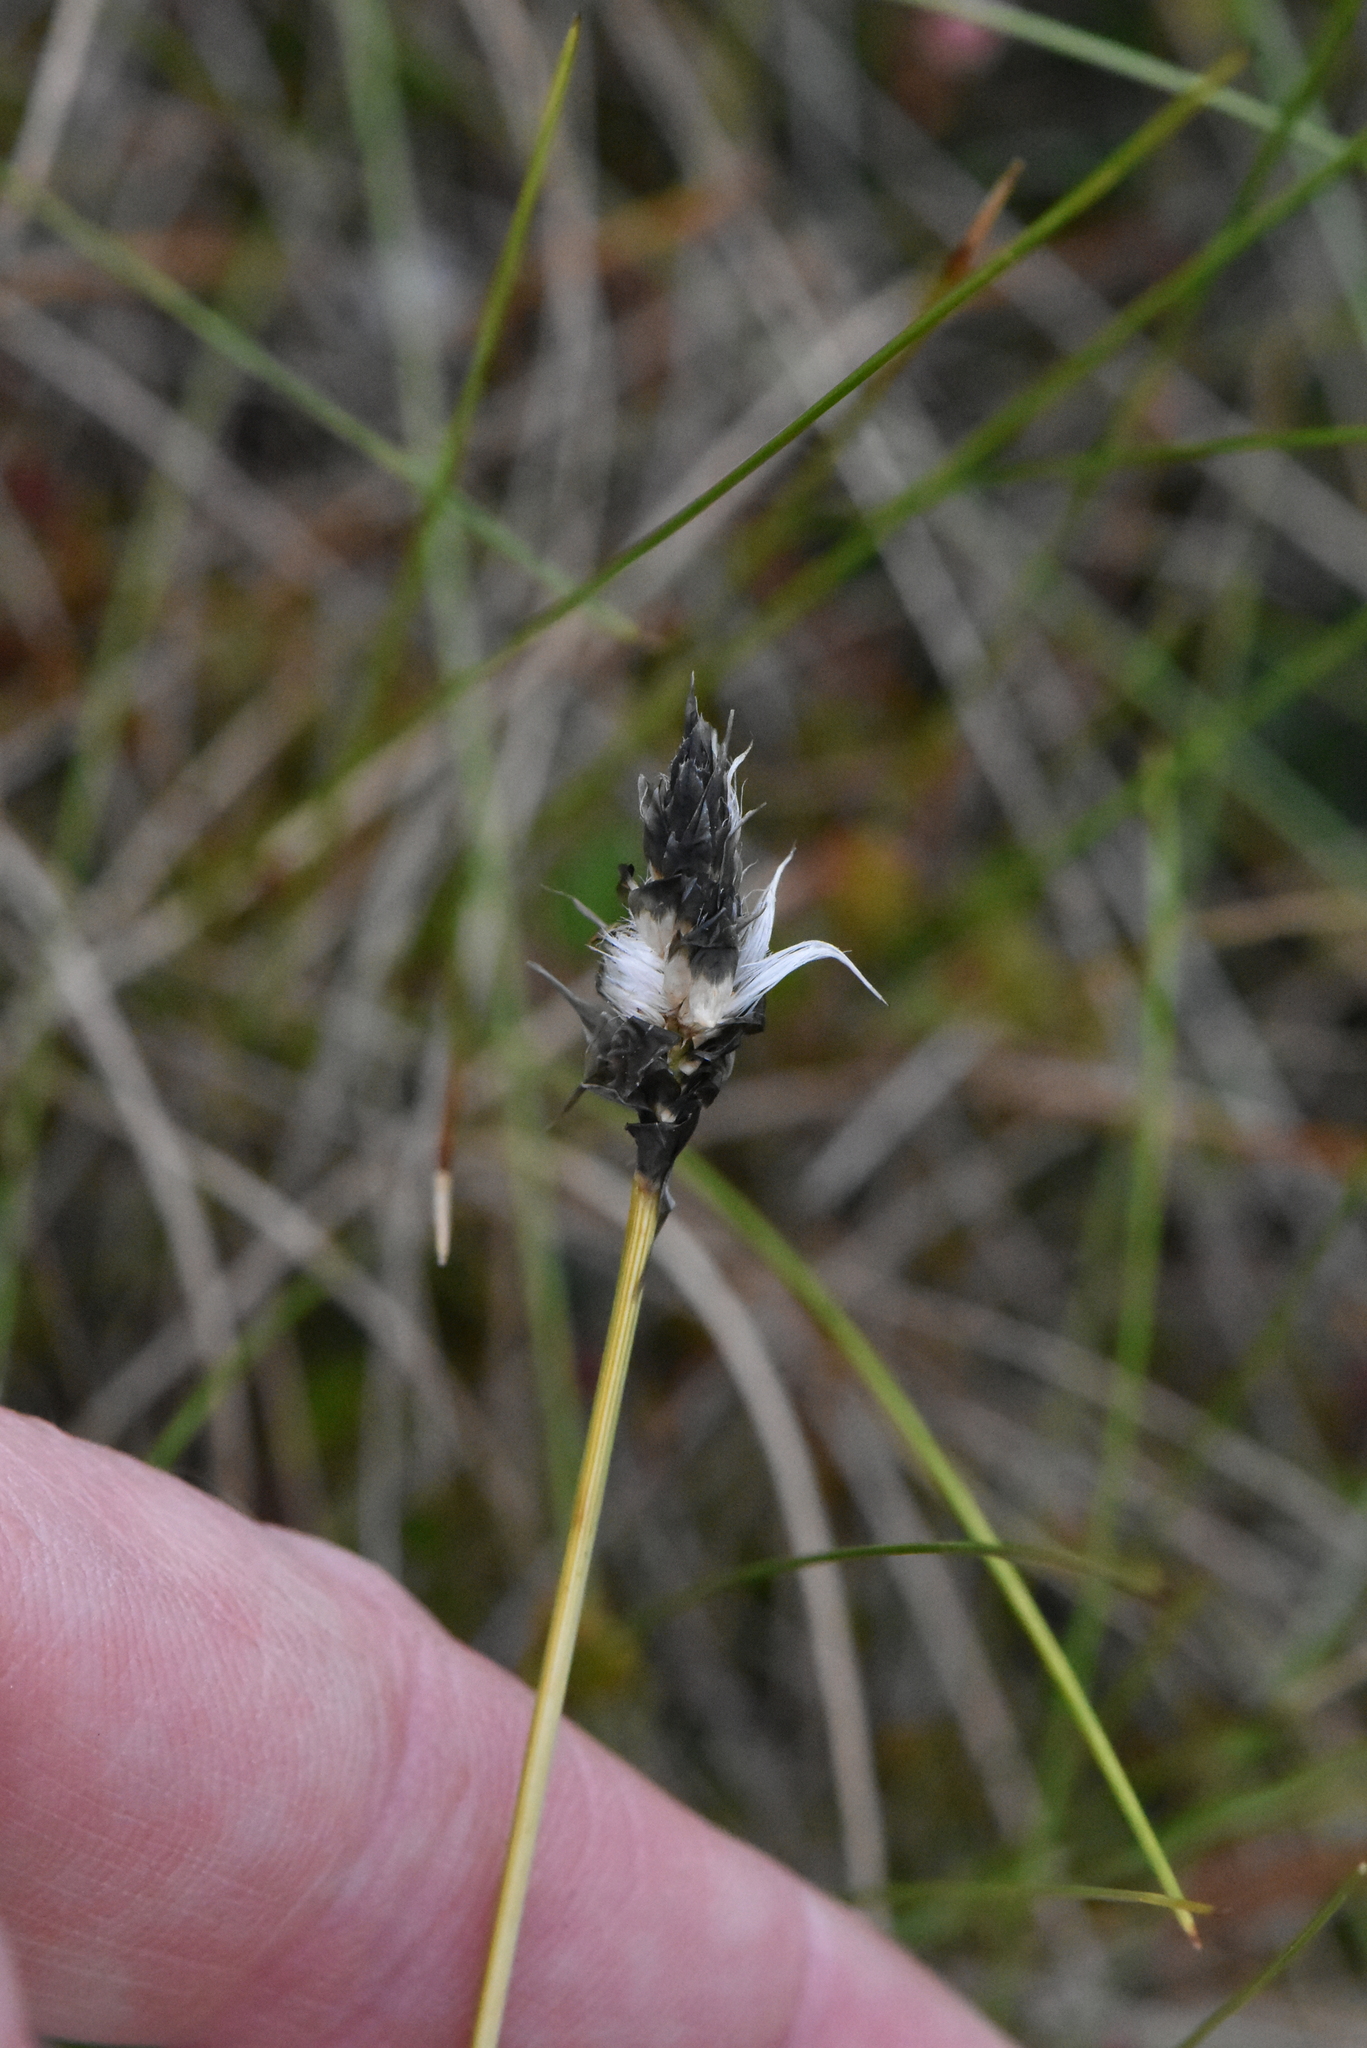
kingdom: Plantae
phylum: Tracheophyta
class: Liliopsida
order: Poales
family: Cyperaceae
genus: Eriophorum
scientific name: Eriophorum vaginatum
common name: Hare's-tail cottongrass
